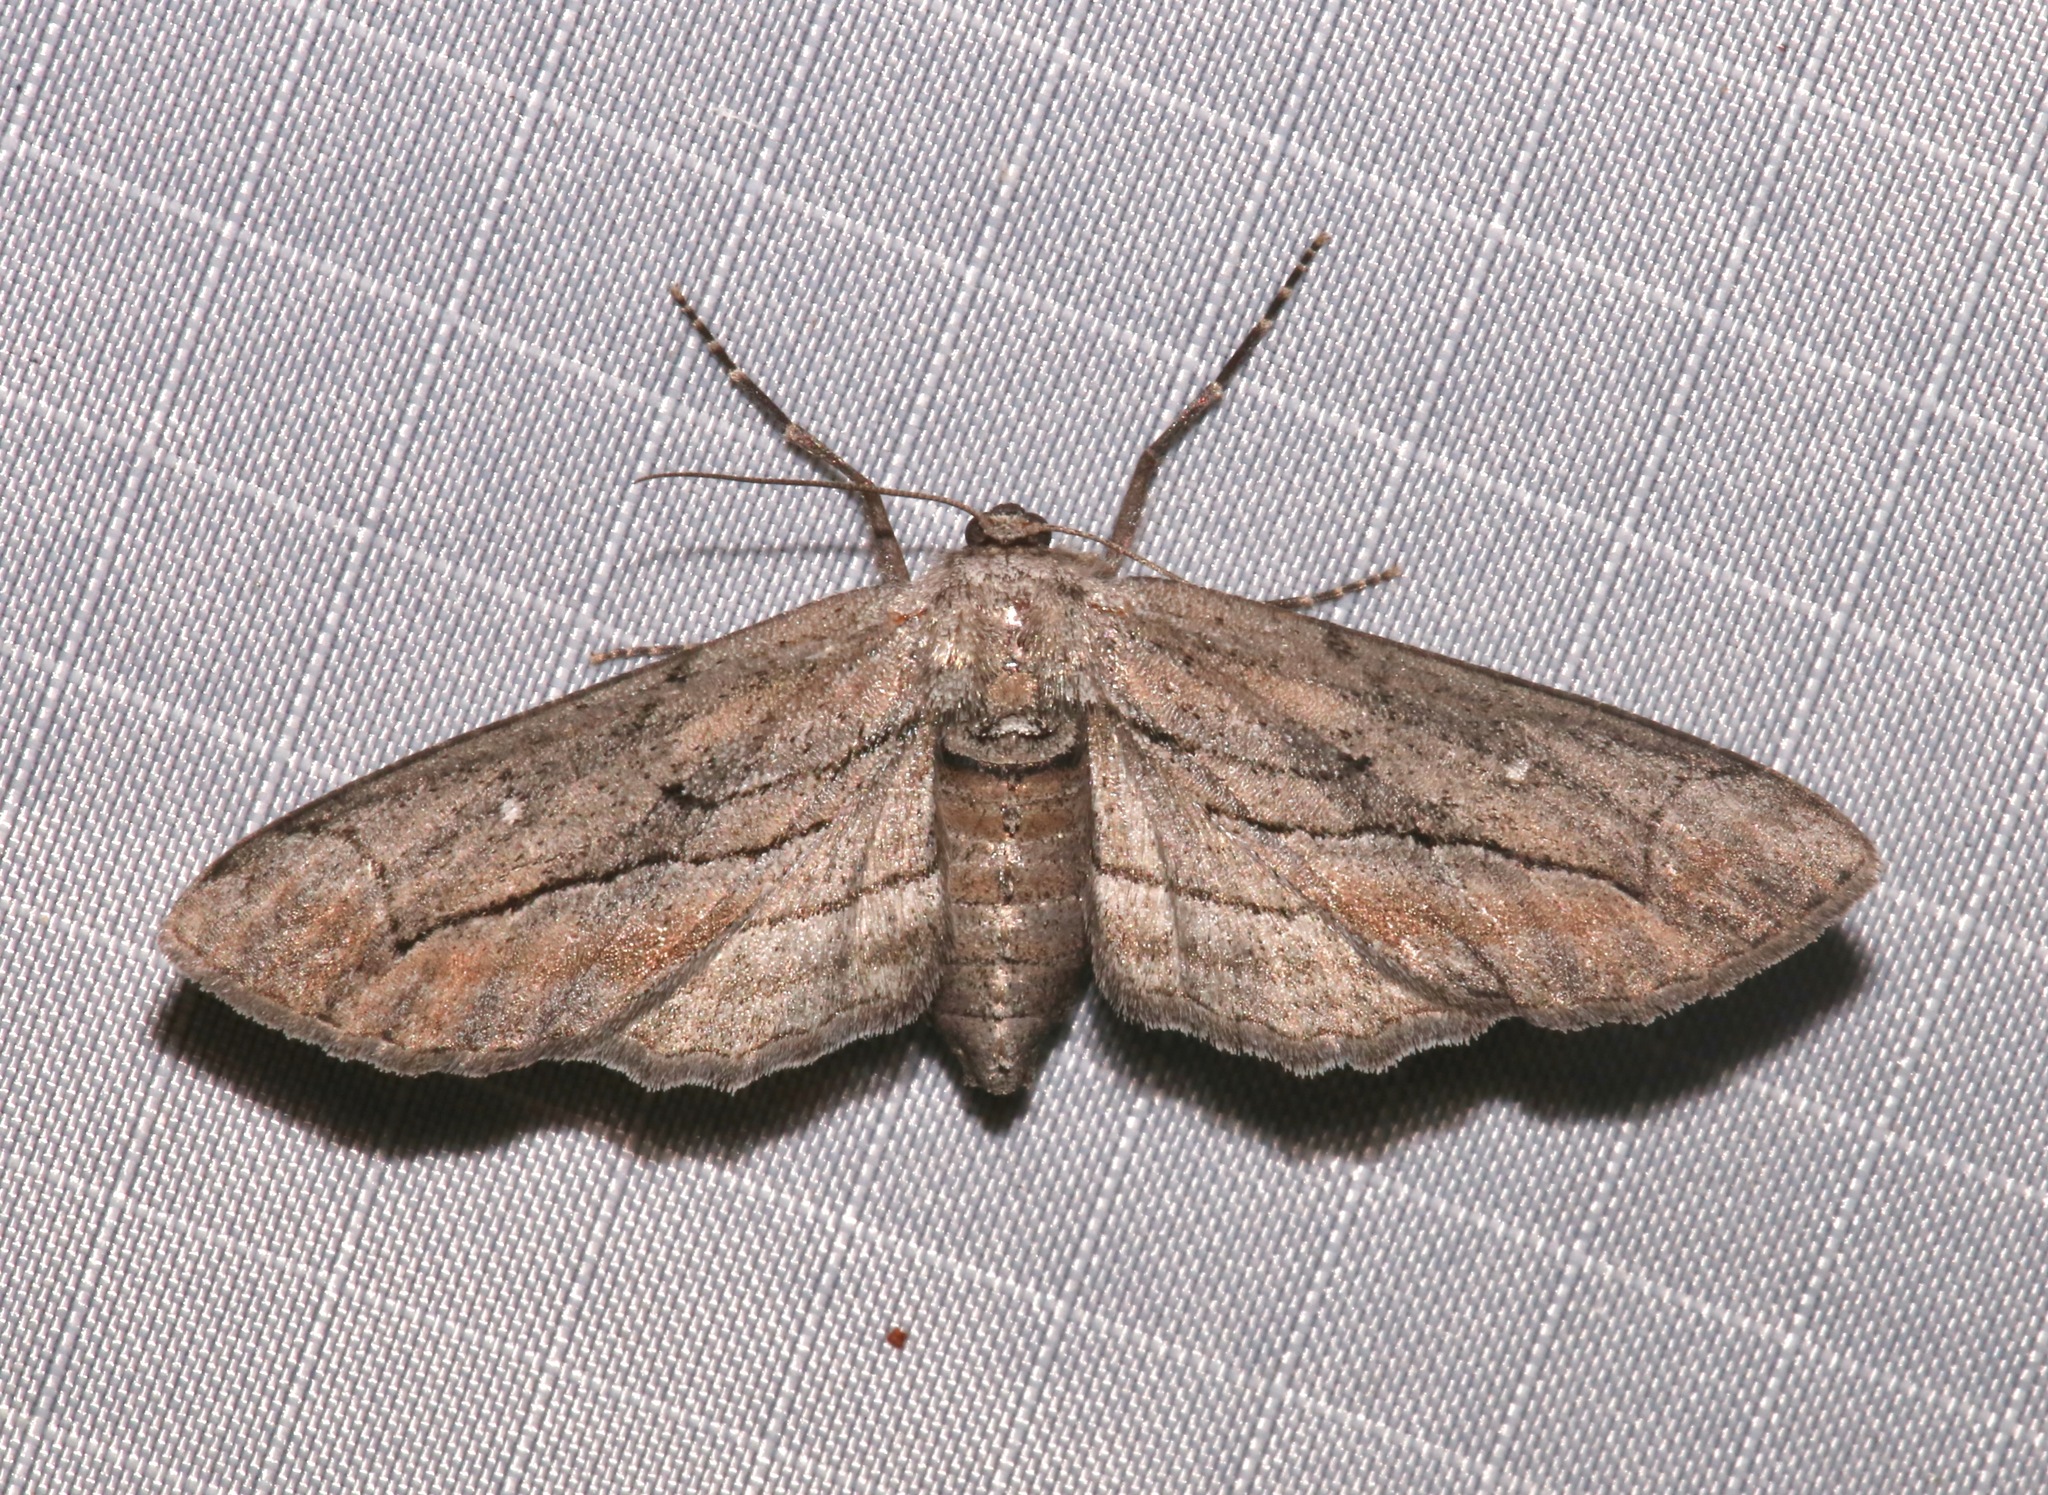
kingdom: Animalia
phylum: Arthropoda
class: Insecta
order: Lepidoptera
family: Geometridae
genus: Holochroa
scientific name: Holochroa dissociarius
